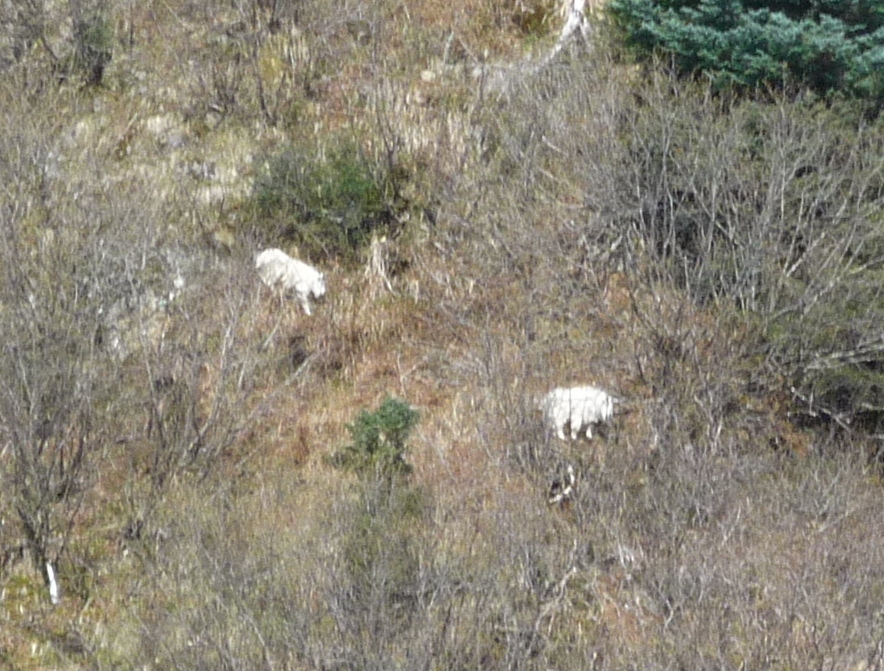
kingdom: Animalia
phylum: Chordata
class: Mammalia
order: Artiodactyla
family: Bovidae
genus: Oreamnos
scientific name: Oreamnos americanus
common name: Mountain goat
